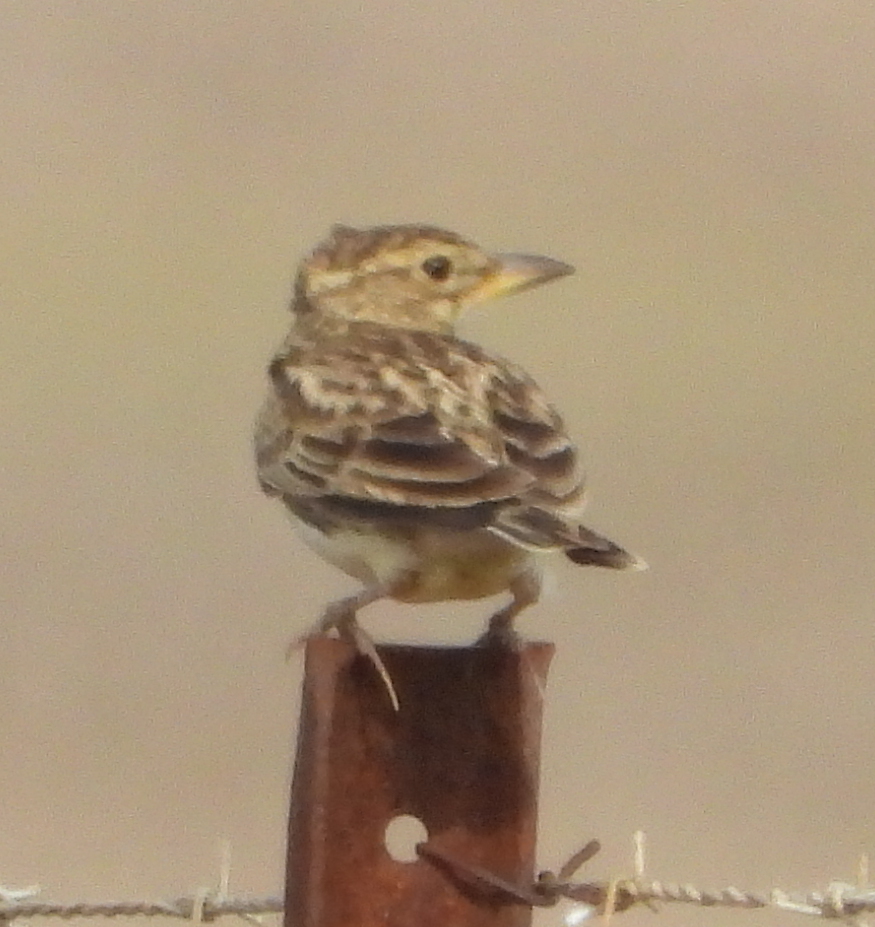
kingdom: Animalia
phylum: Chordata
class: Aves
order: Passeriformes
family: Alaudidae
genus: Galerida
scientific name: Galerida magnirostris
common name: Large-billed lark
